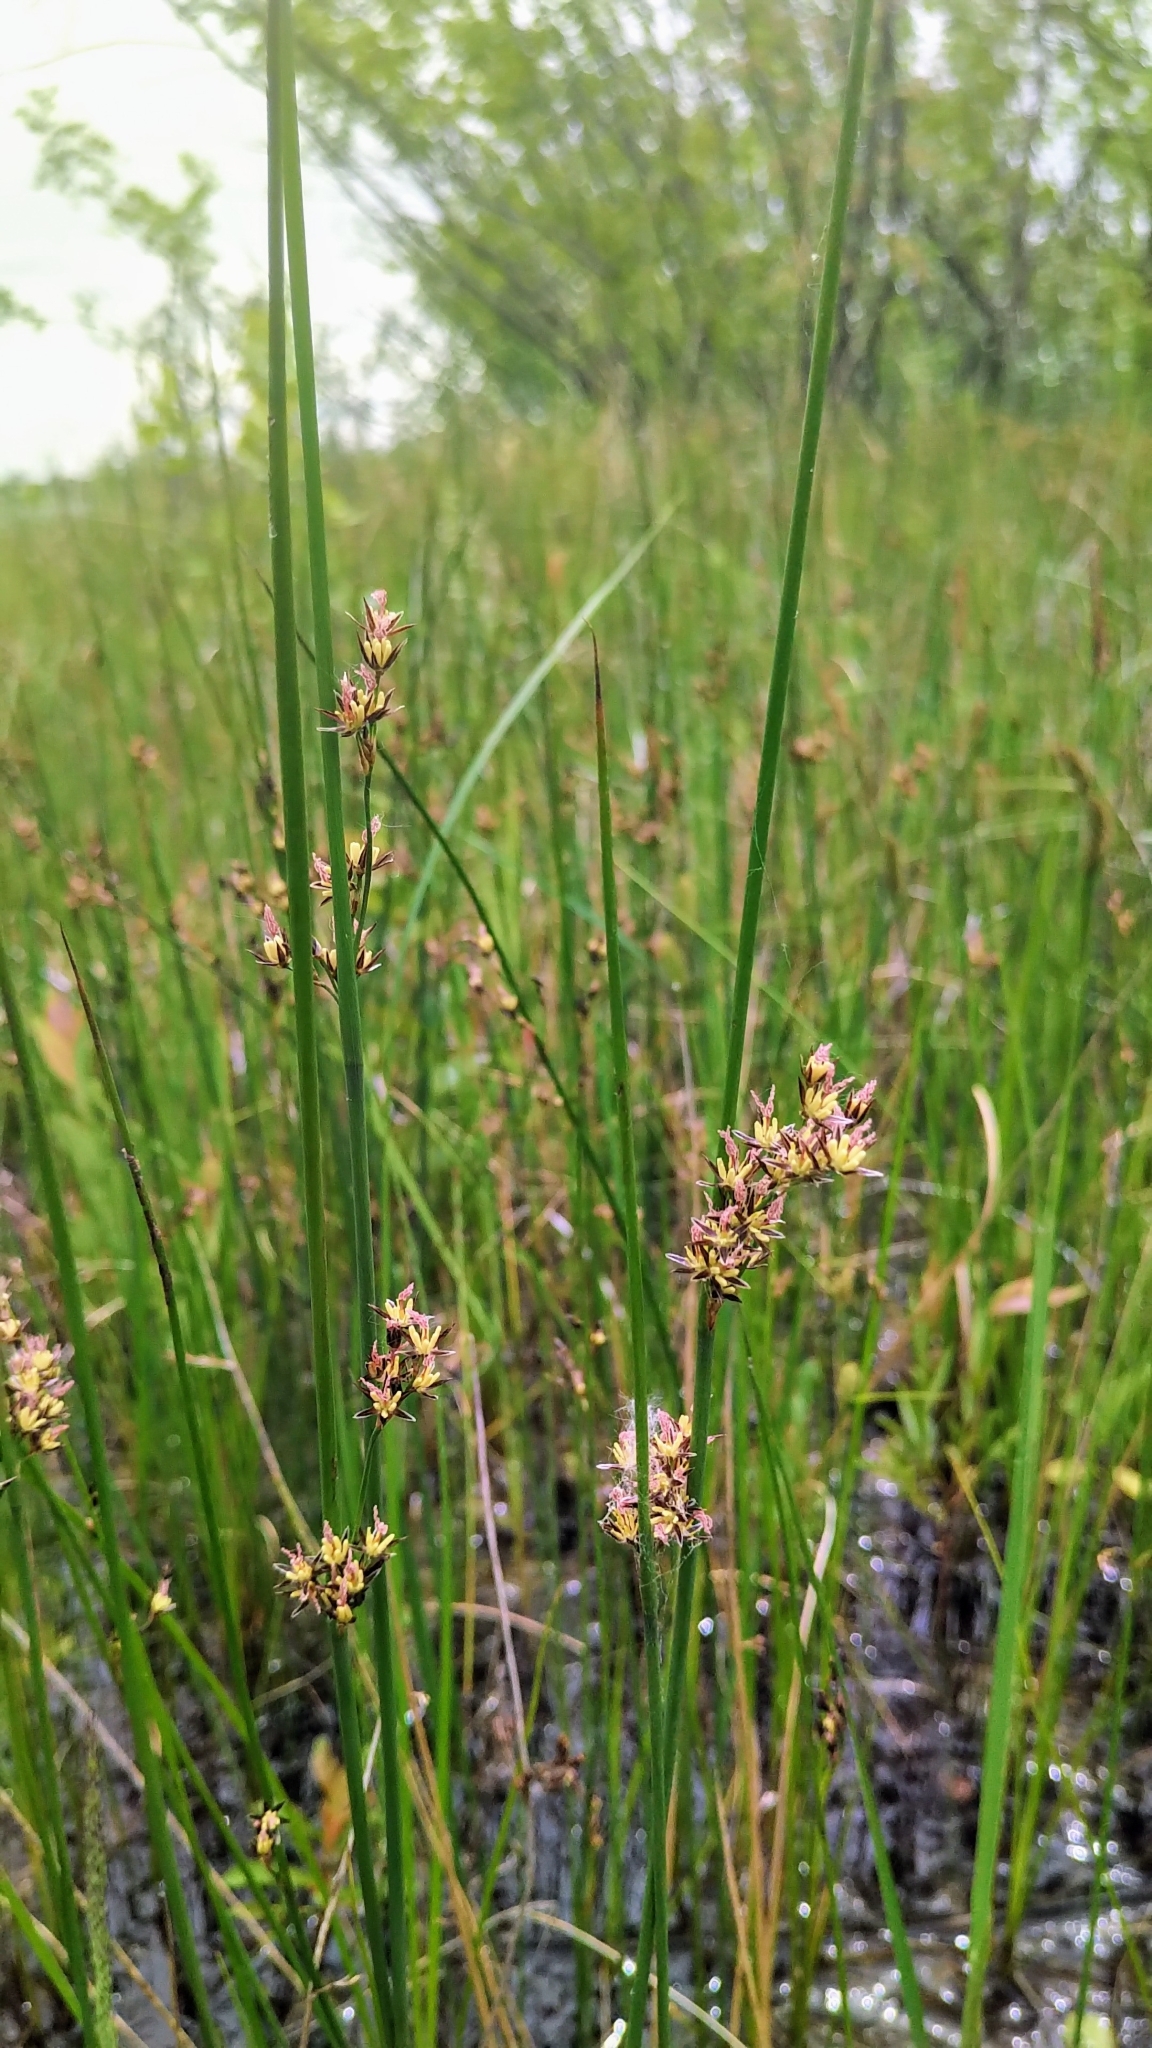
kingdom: Plantae
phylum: Tracheophyta
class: Liliopsida
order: Poales
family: Juncaceae
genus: Juncus
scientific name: Juncus balticus
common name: Baltic rush
